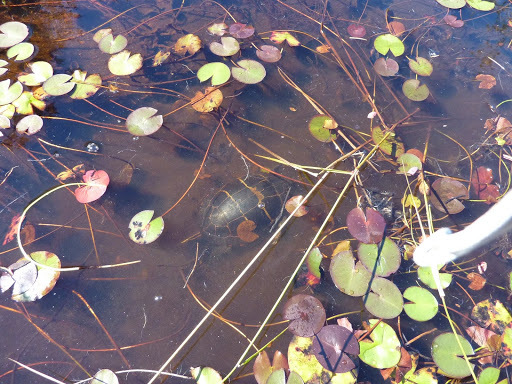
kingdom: Animalia
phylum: Chordata
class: Testudines
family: Emydidae
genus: Chrysemys
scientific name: Chrysemys picta
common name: Painted turtle
